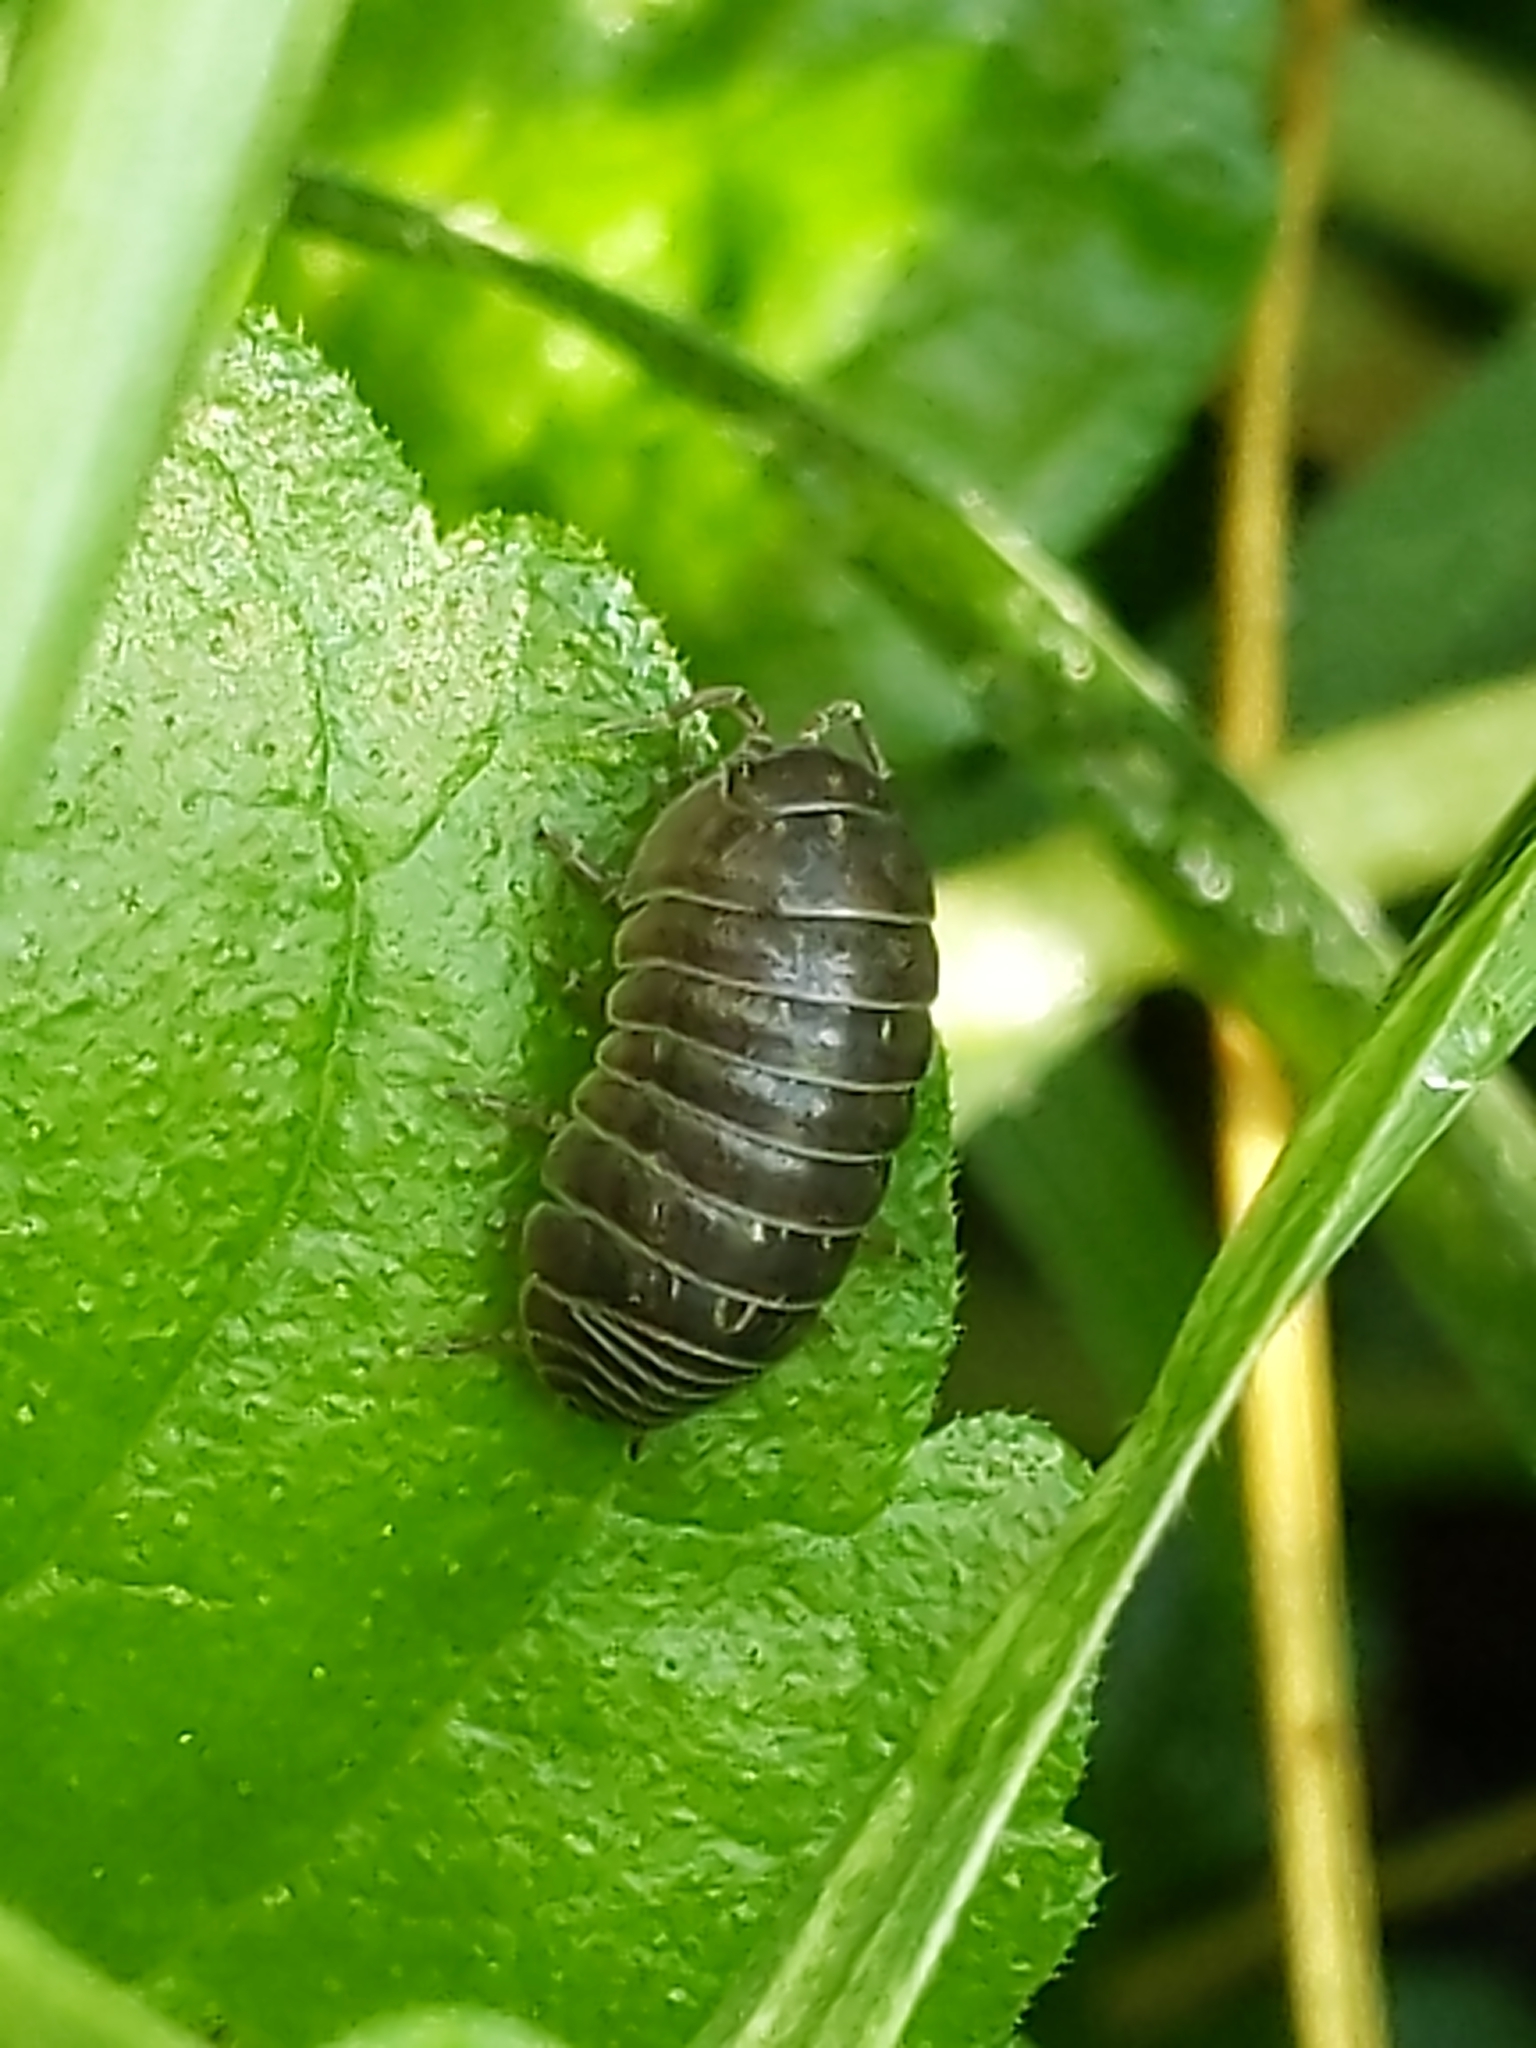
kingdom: Animalia
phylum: Arthropoda
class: Malacostraca
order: Isopoda
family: Armadillidiidae
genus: Armadillidium
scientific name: Armadillidium vulgare
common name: Common pill woodlouse
